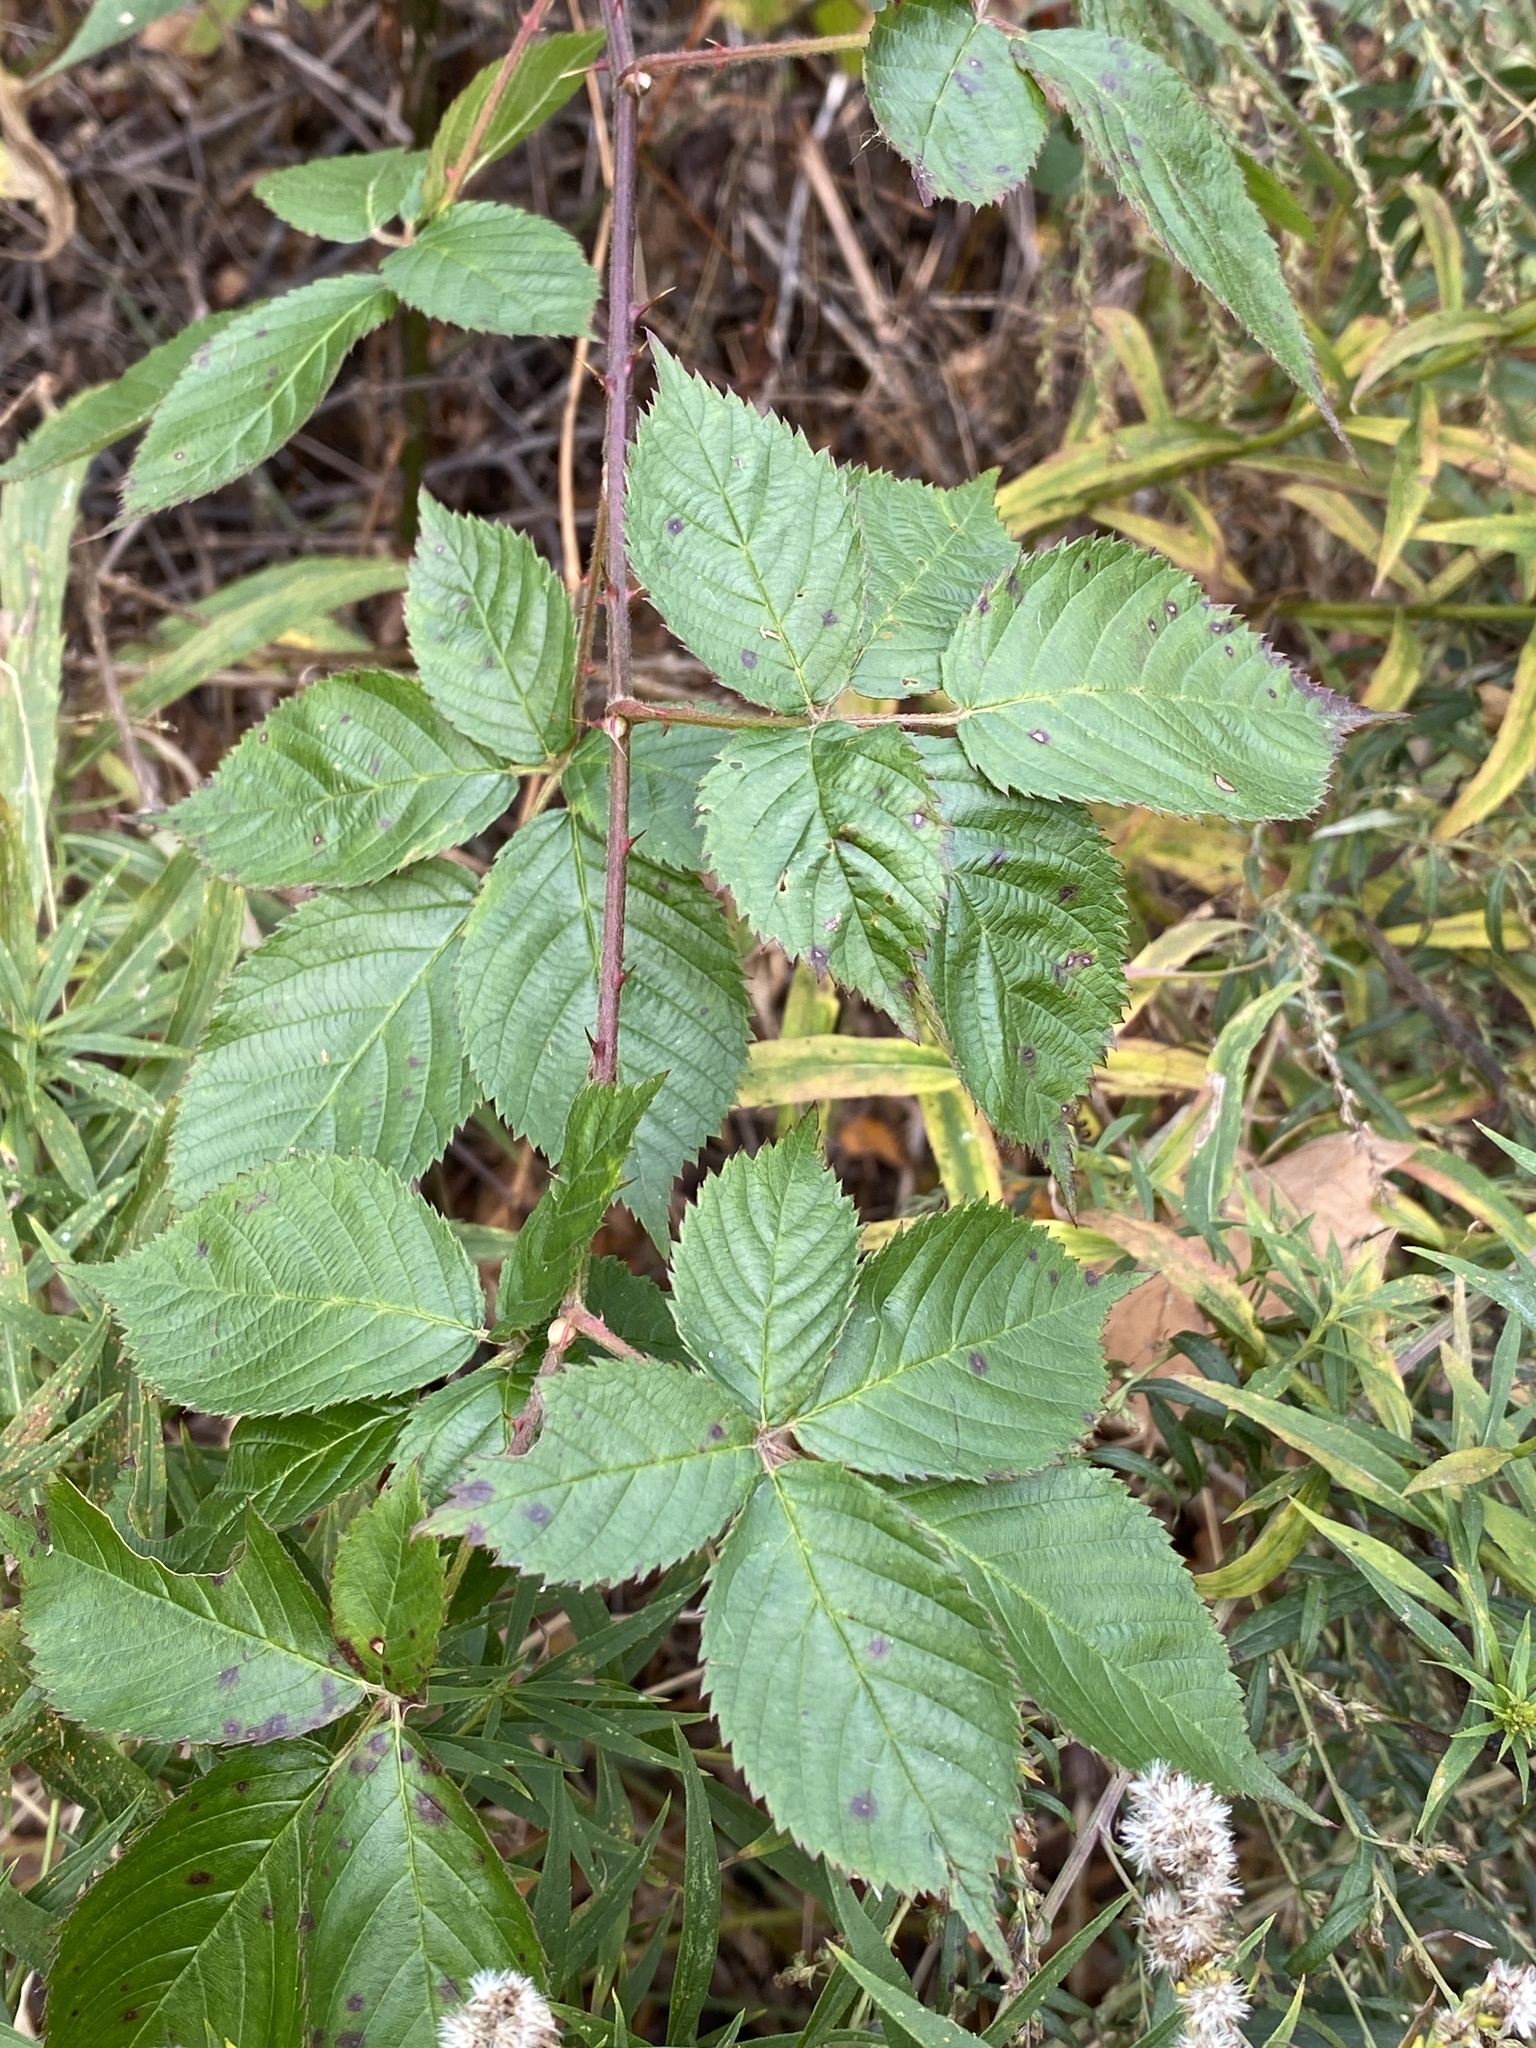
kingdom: Plantae
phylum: Tracheophyta
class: Magnoliopsida
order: Rosales
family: Rosaceae
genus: Rubus
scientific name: Rubus allegheniensis
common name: Allegheny blackberry
